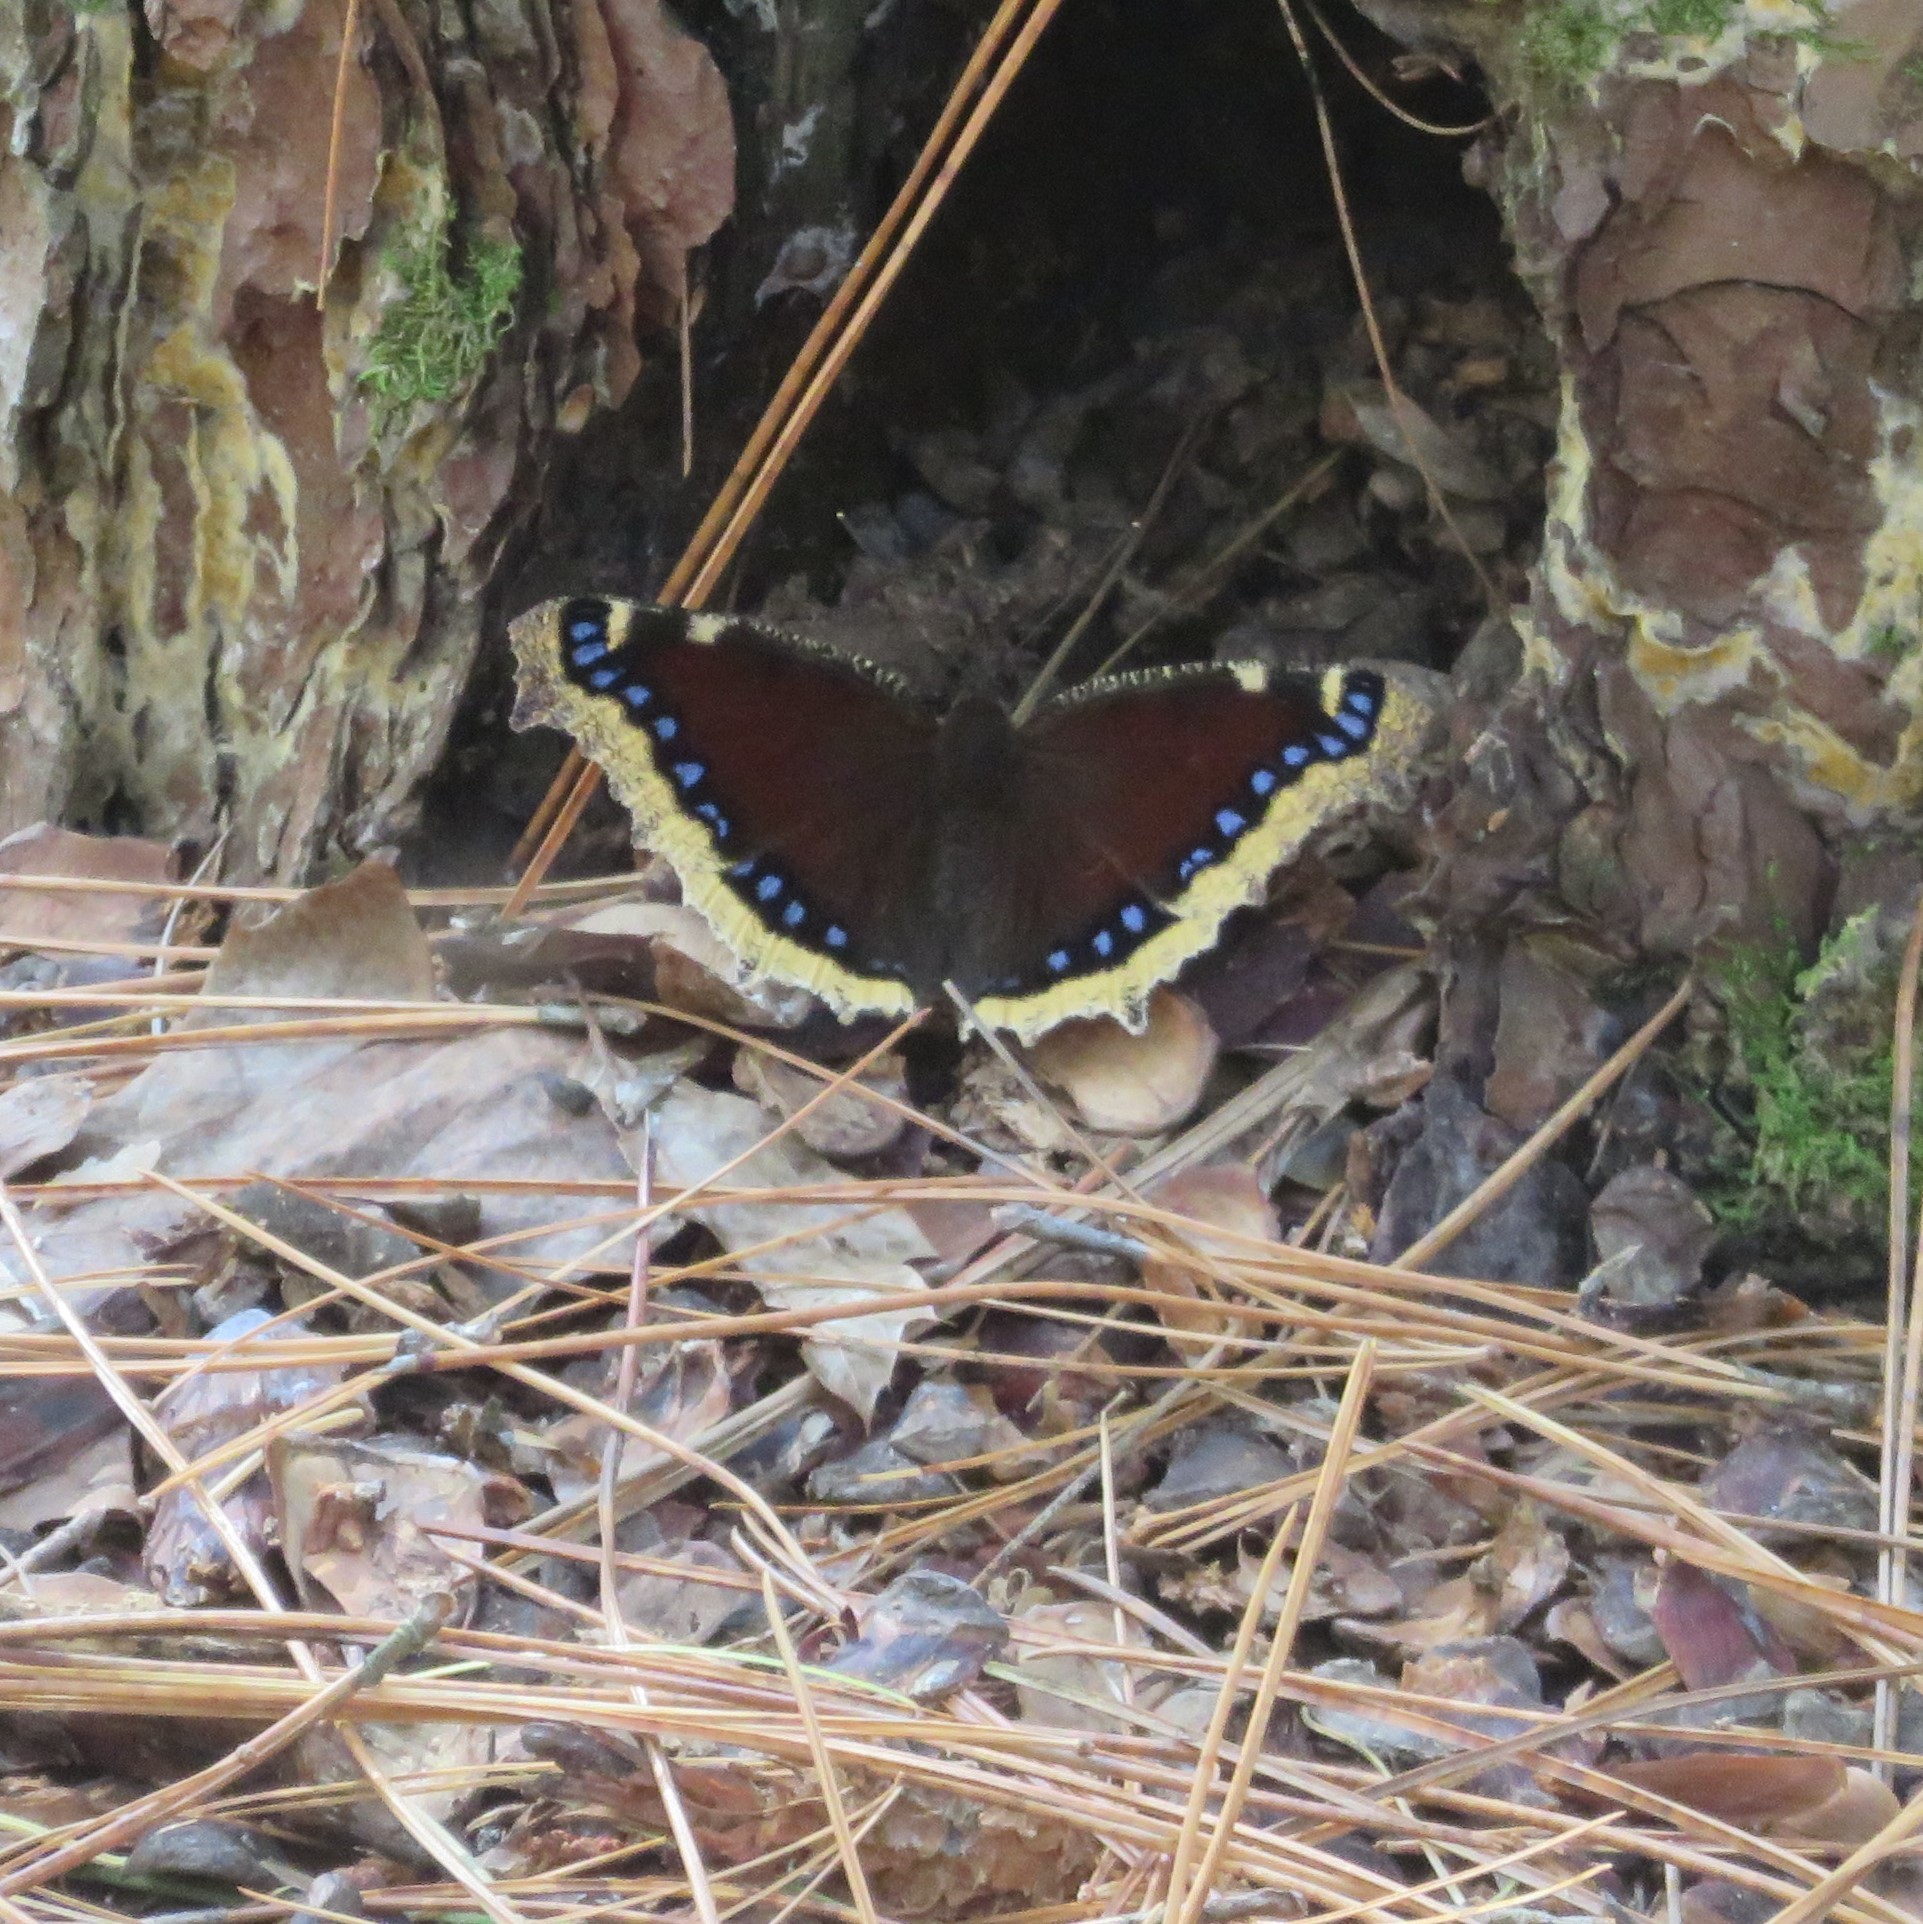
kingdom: Animalia
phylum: Arthropoda
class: Insecta
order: Lepidoptera
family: Nymphalidae
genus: Nymphalis
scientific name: Nymphalis antiopa
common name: Camberwell beauty
